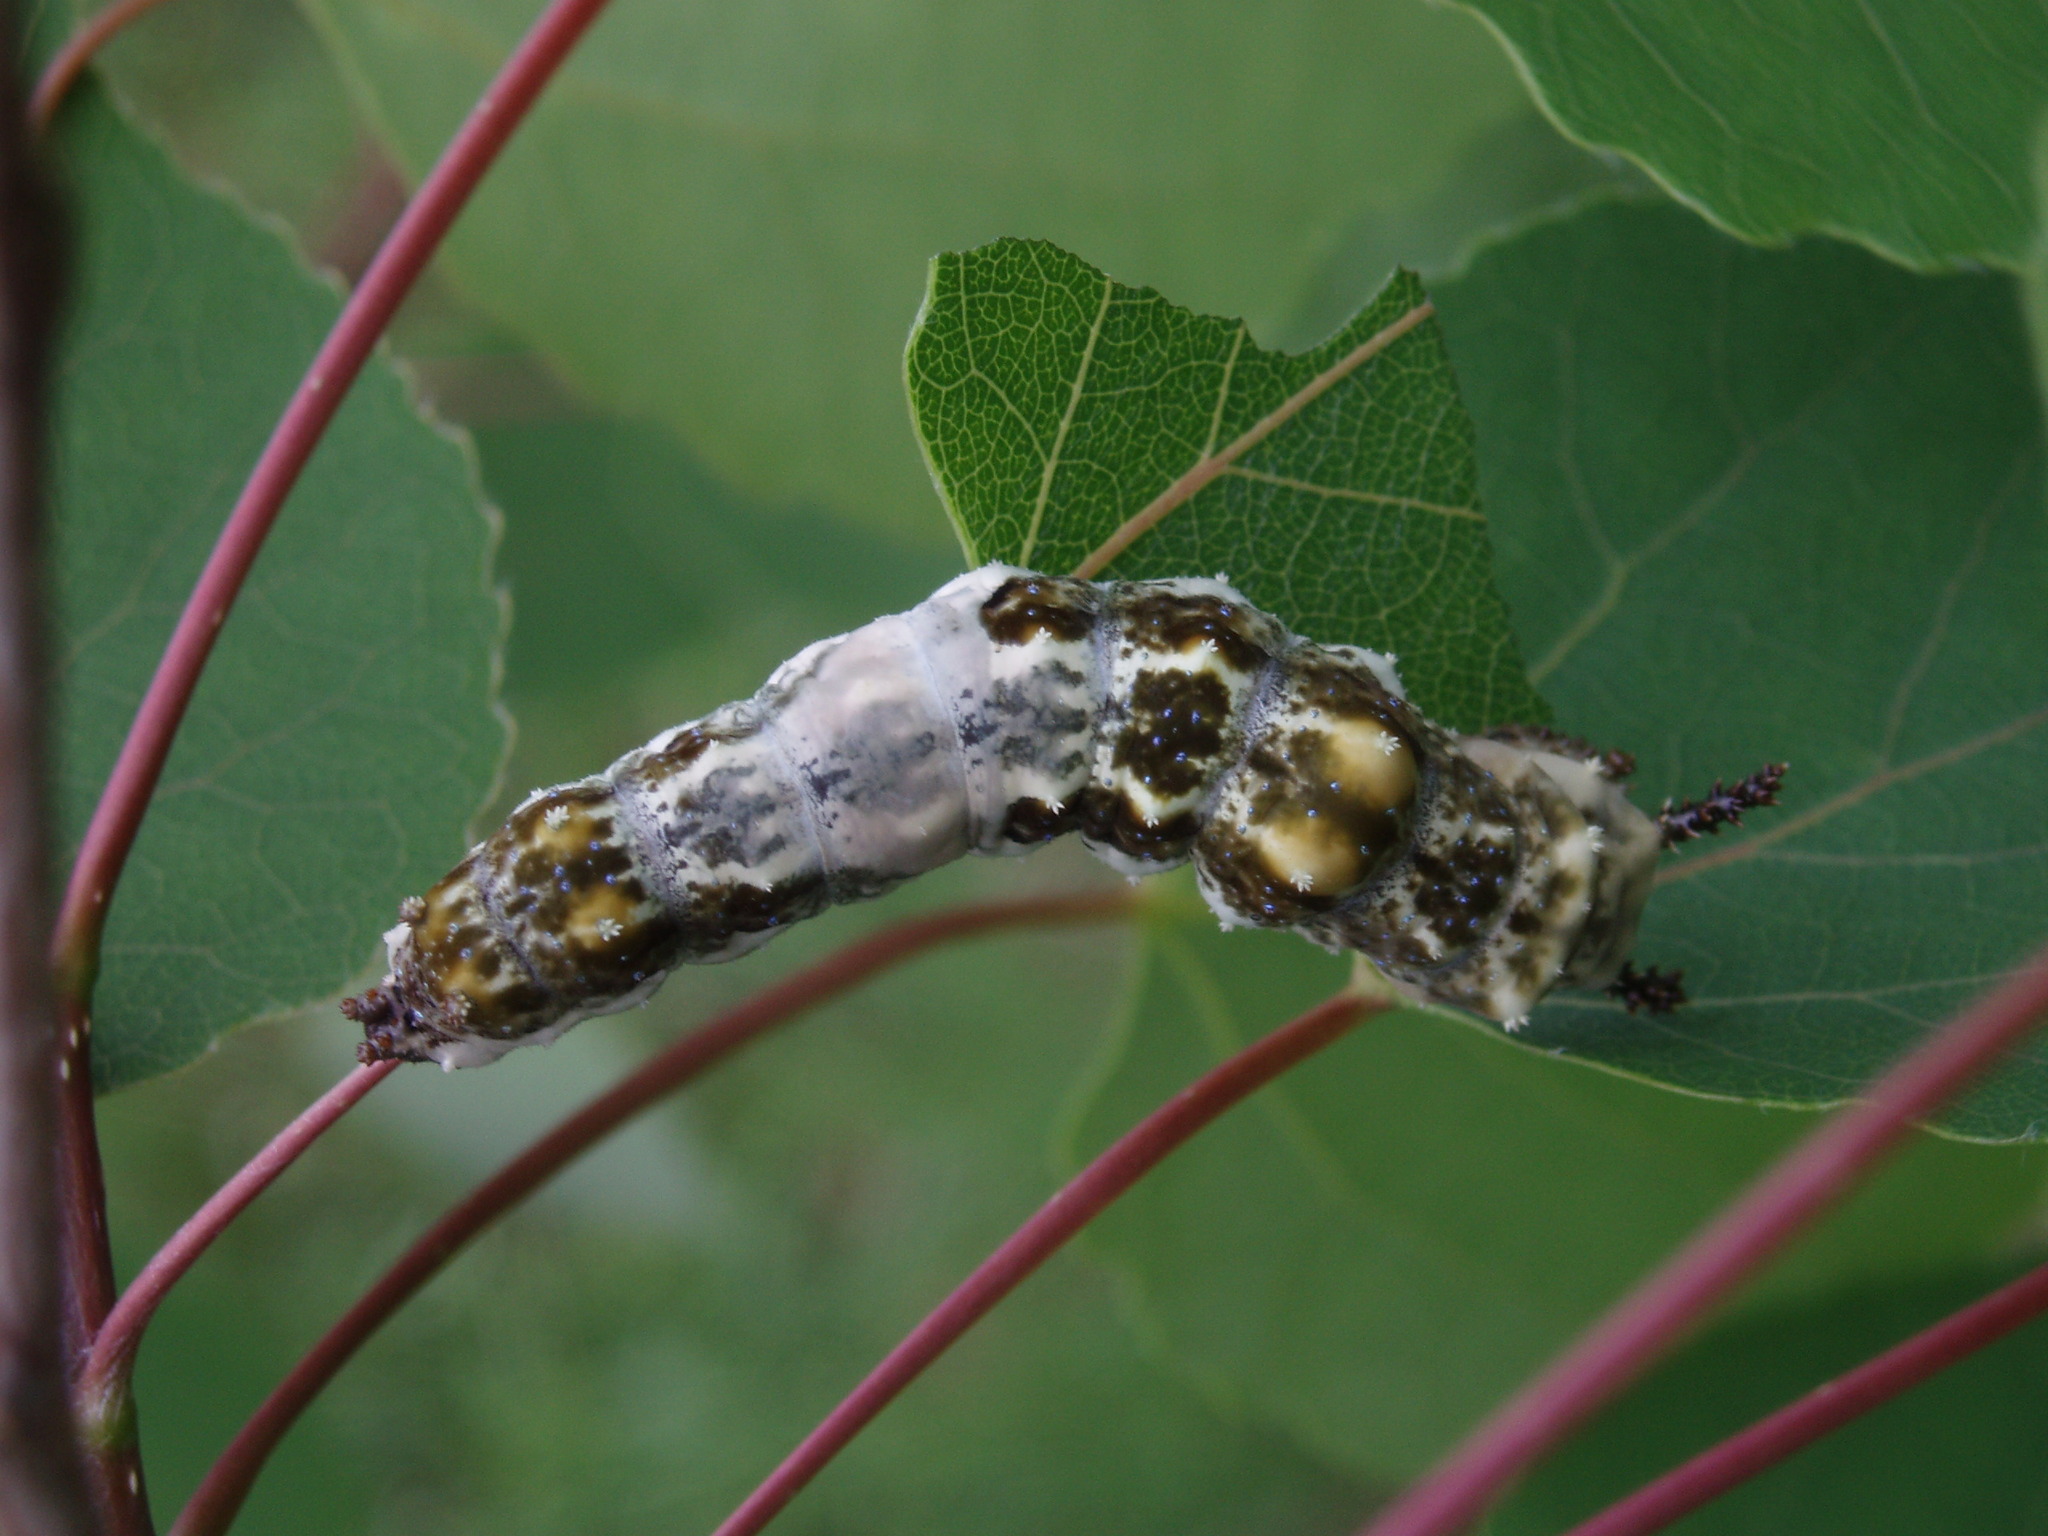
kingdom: Animalia
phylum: Arthropoda
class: Insecta
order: Lepidoptera
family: Nymphalidae
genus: Limenitis
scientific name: Limenitis arthemis
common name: Red-spotted admiral
